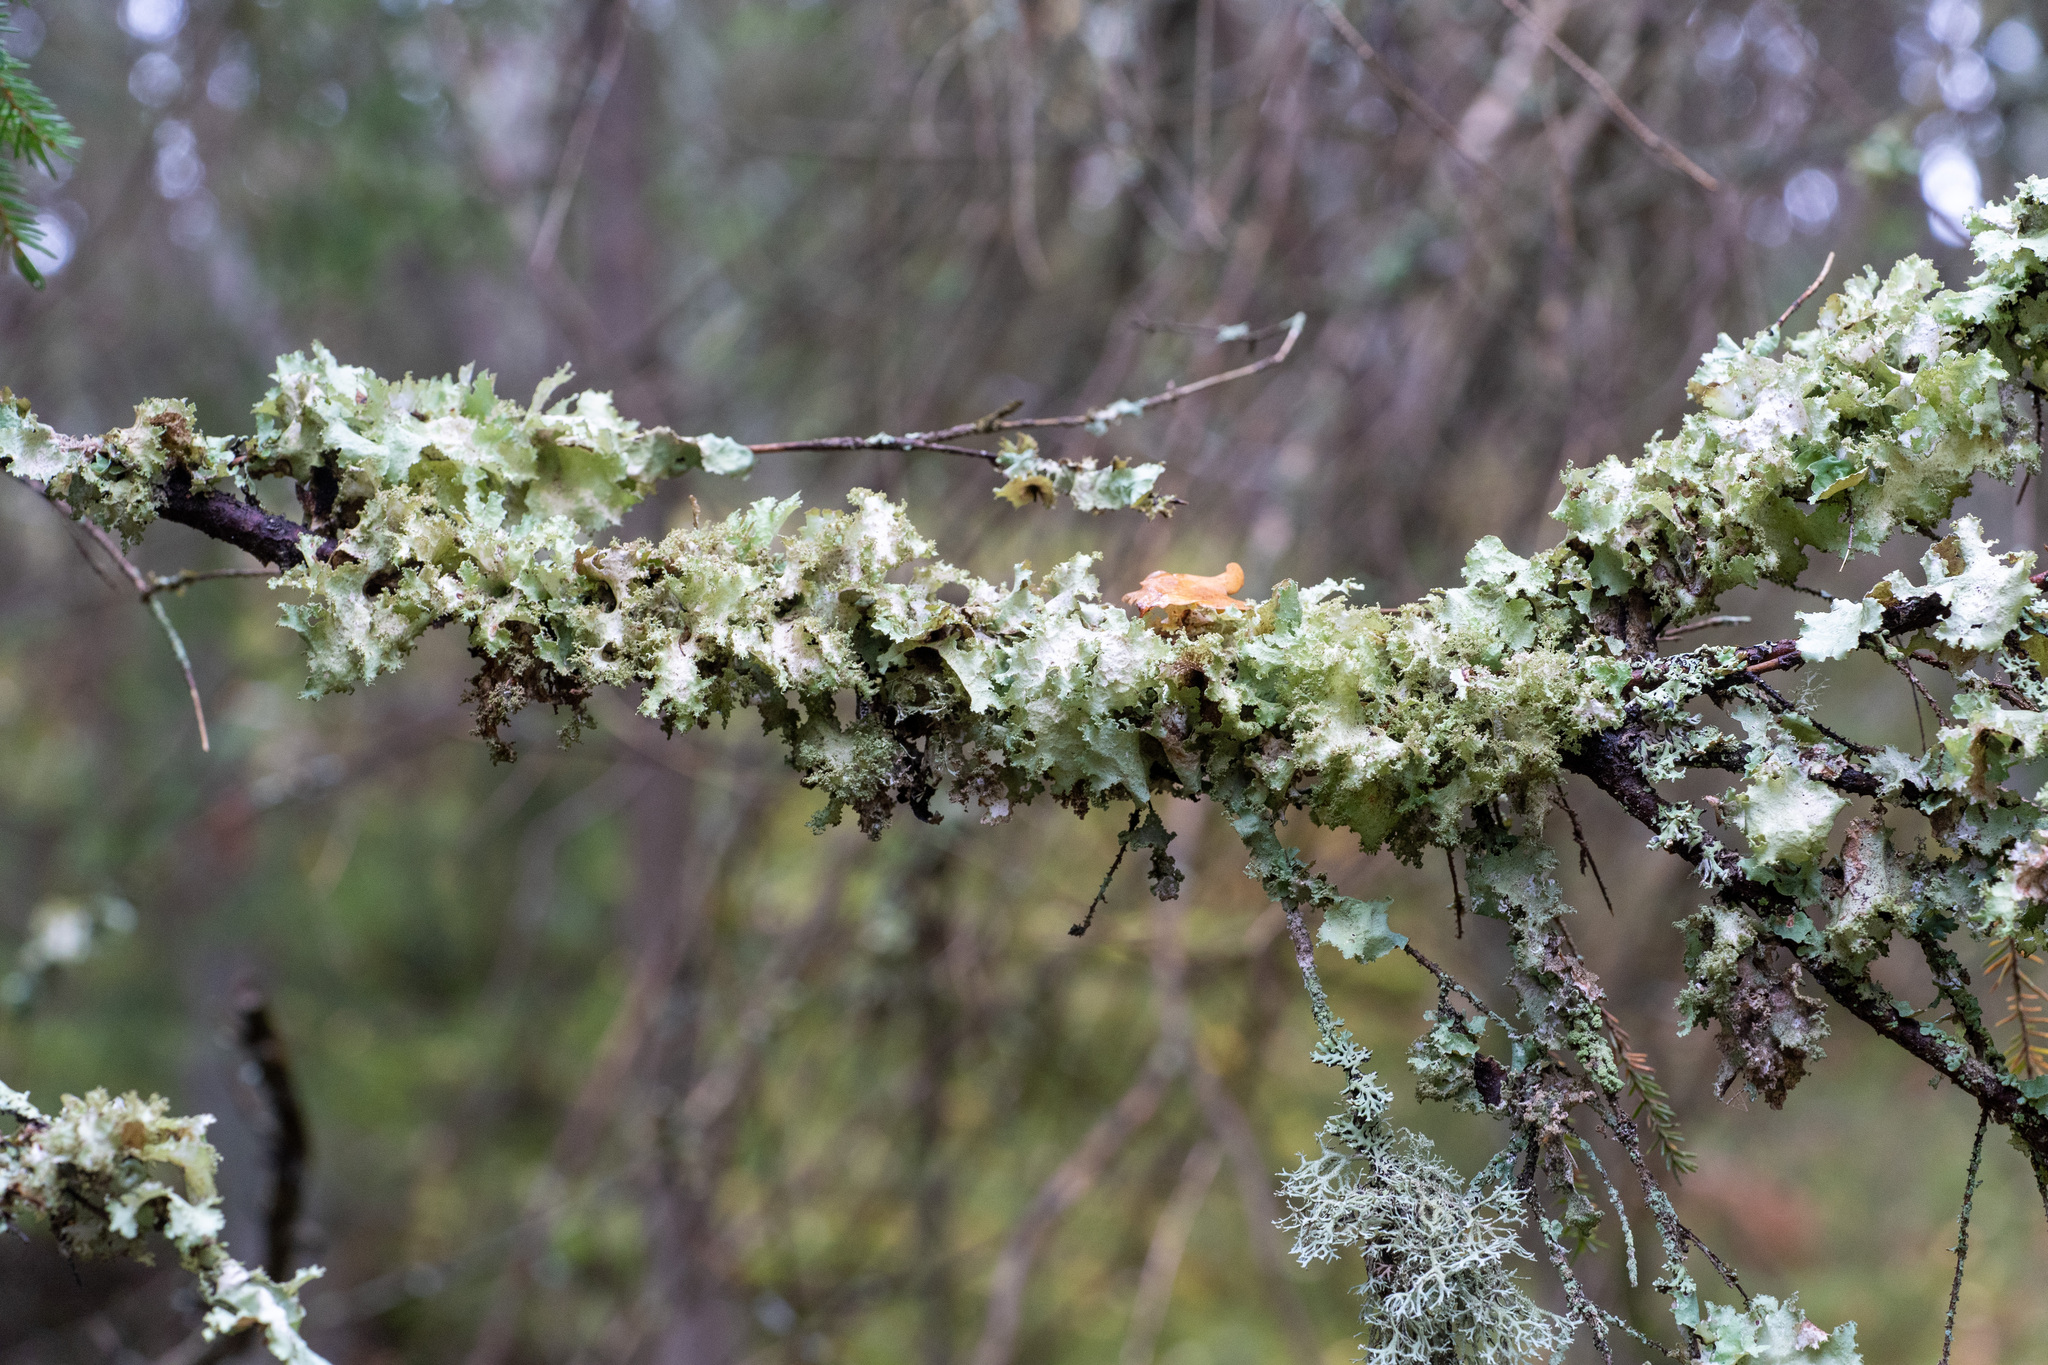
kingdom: Fungi
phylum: Ascomycota
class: Lecanoromycetes
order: Lecanorales
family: Parmeliaceae
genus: Platismatia
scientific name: Platismatia glauca
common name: Varied rag lichen
